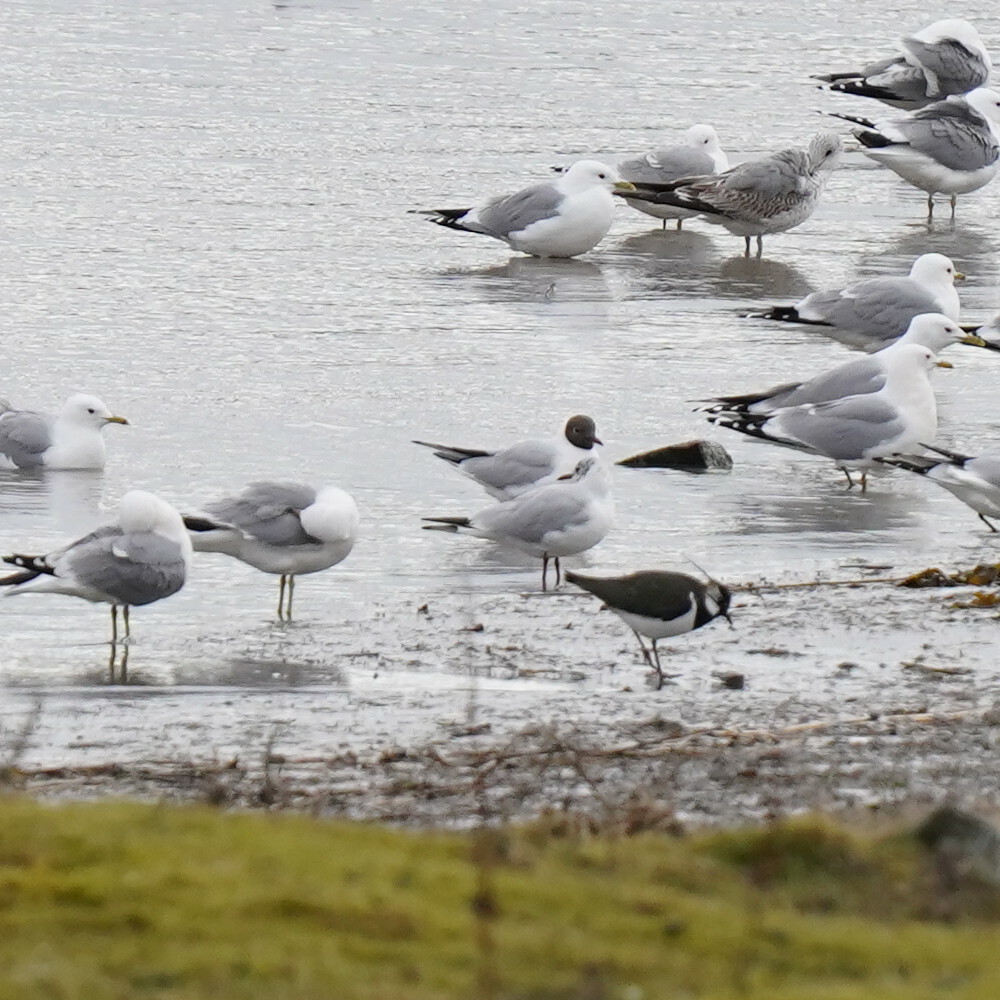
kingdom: Animalia
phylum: Chordata
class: Aves
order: Charadriiformes
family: Laridae
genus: Larus
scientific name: Larus canus
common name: Mew gull
